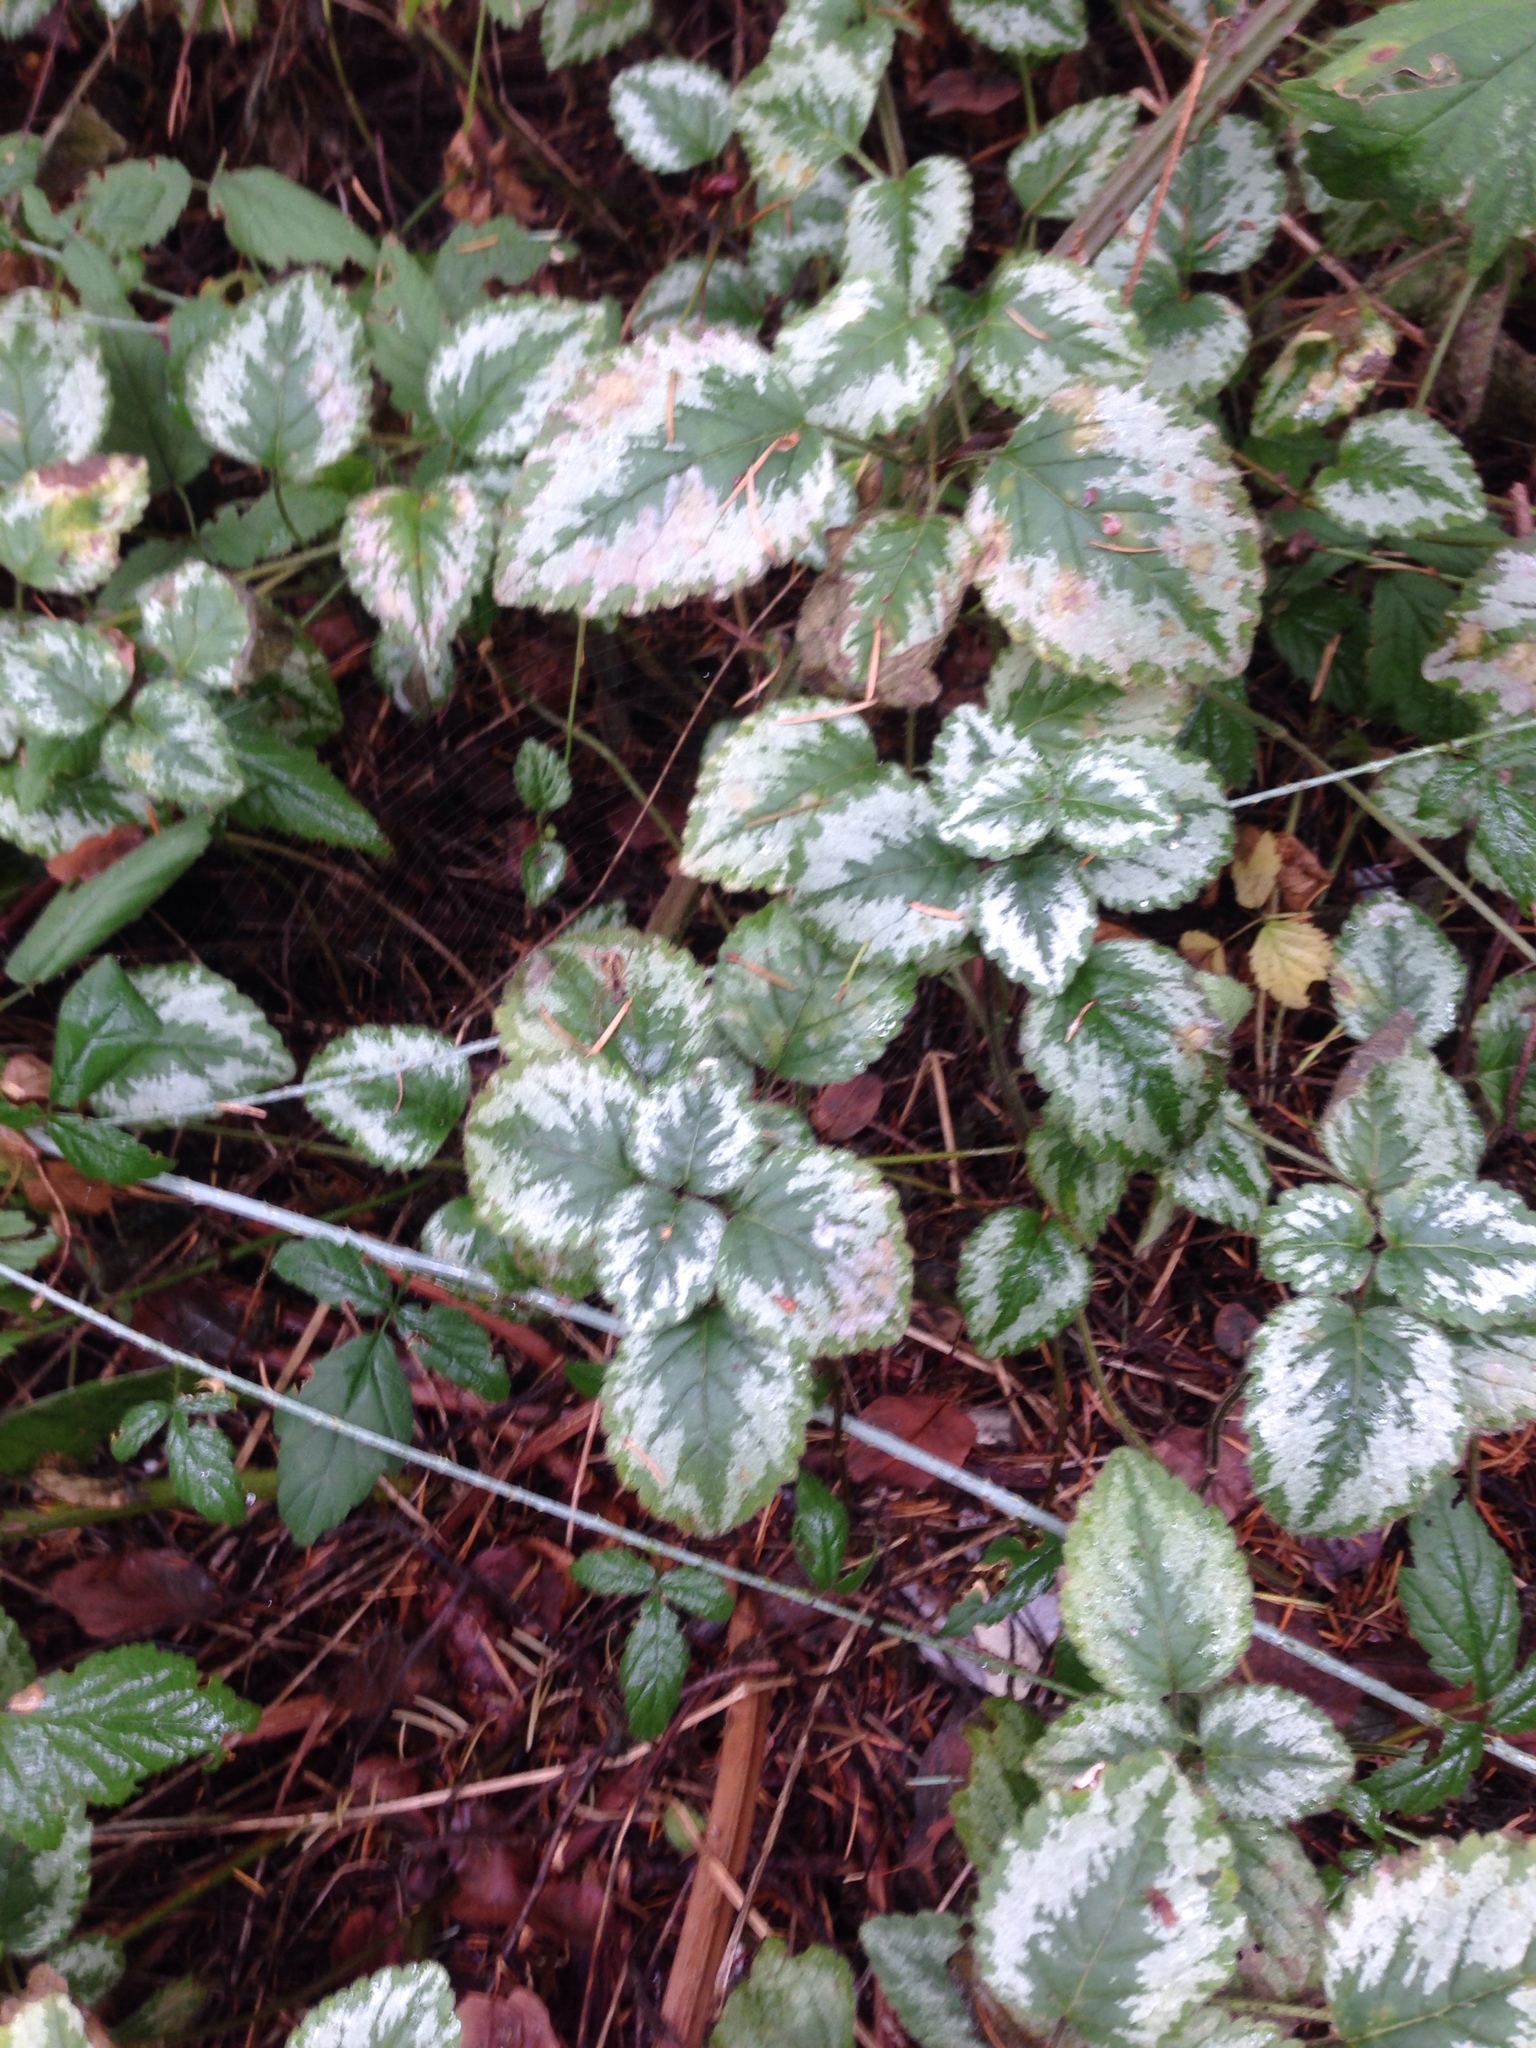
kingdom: Plantae
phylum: Tracheophyta
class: Magnoliopsida
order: Lamiales
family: Lamiaceae
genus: Lamium
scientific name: Lamium galeobdolon
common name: Yellow archangel
